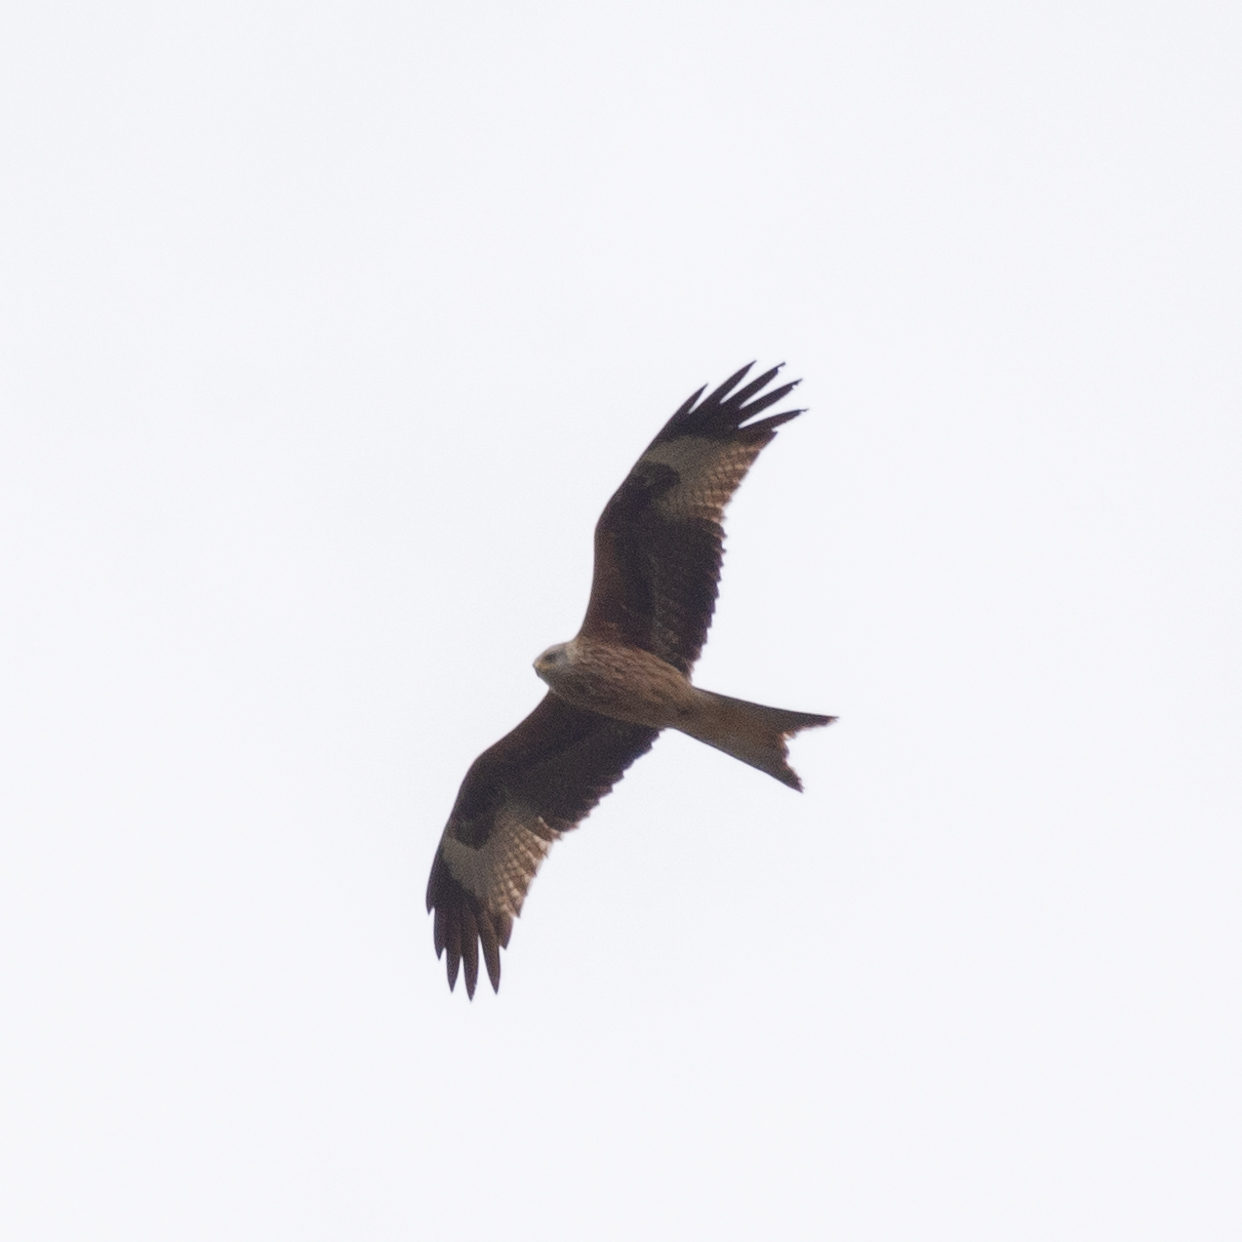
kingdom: Animalia
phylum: Chordata
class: Aves
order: Accipitriformes
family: Accipitridae
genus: Milvus
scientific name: Milvus milvus
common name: Red kite
